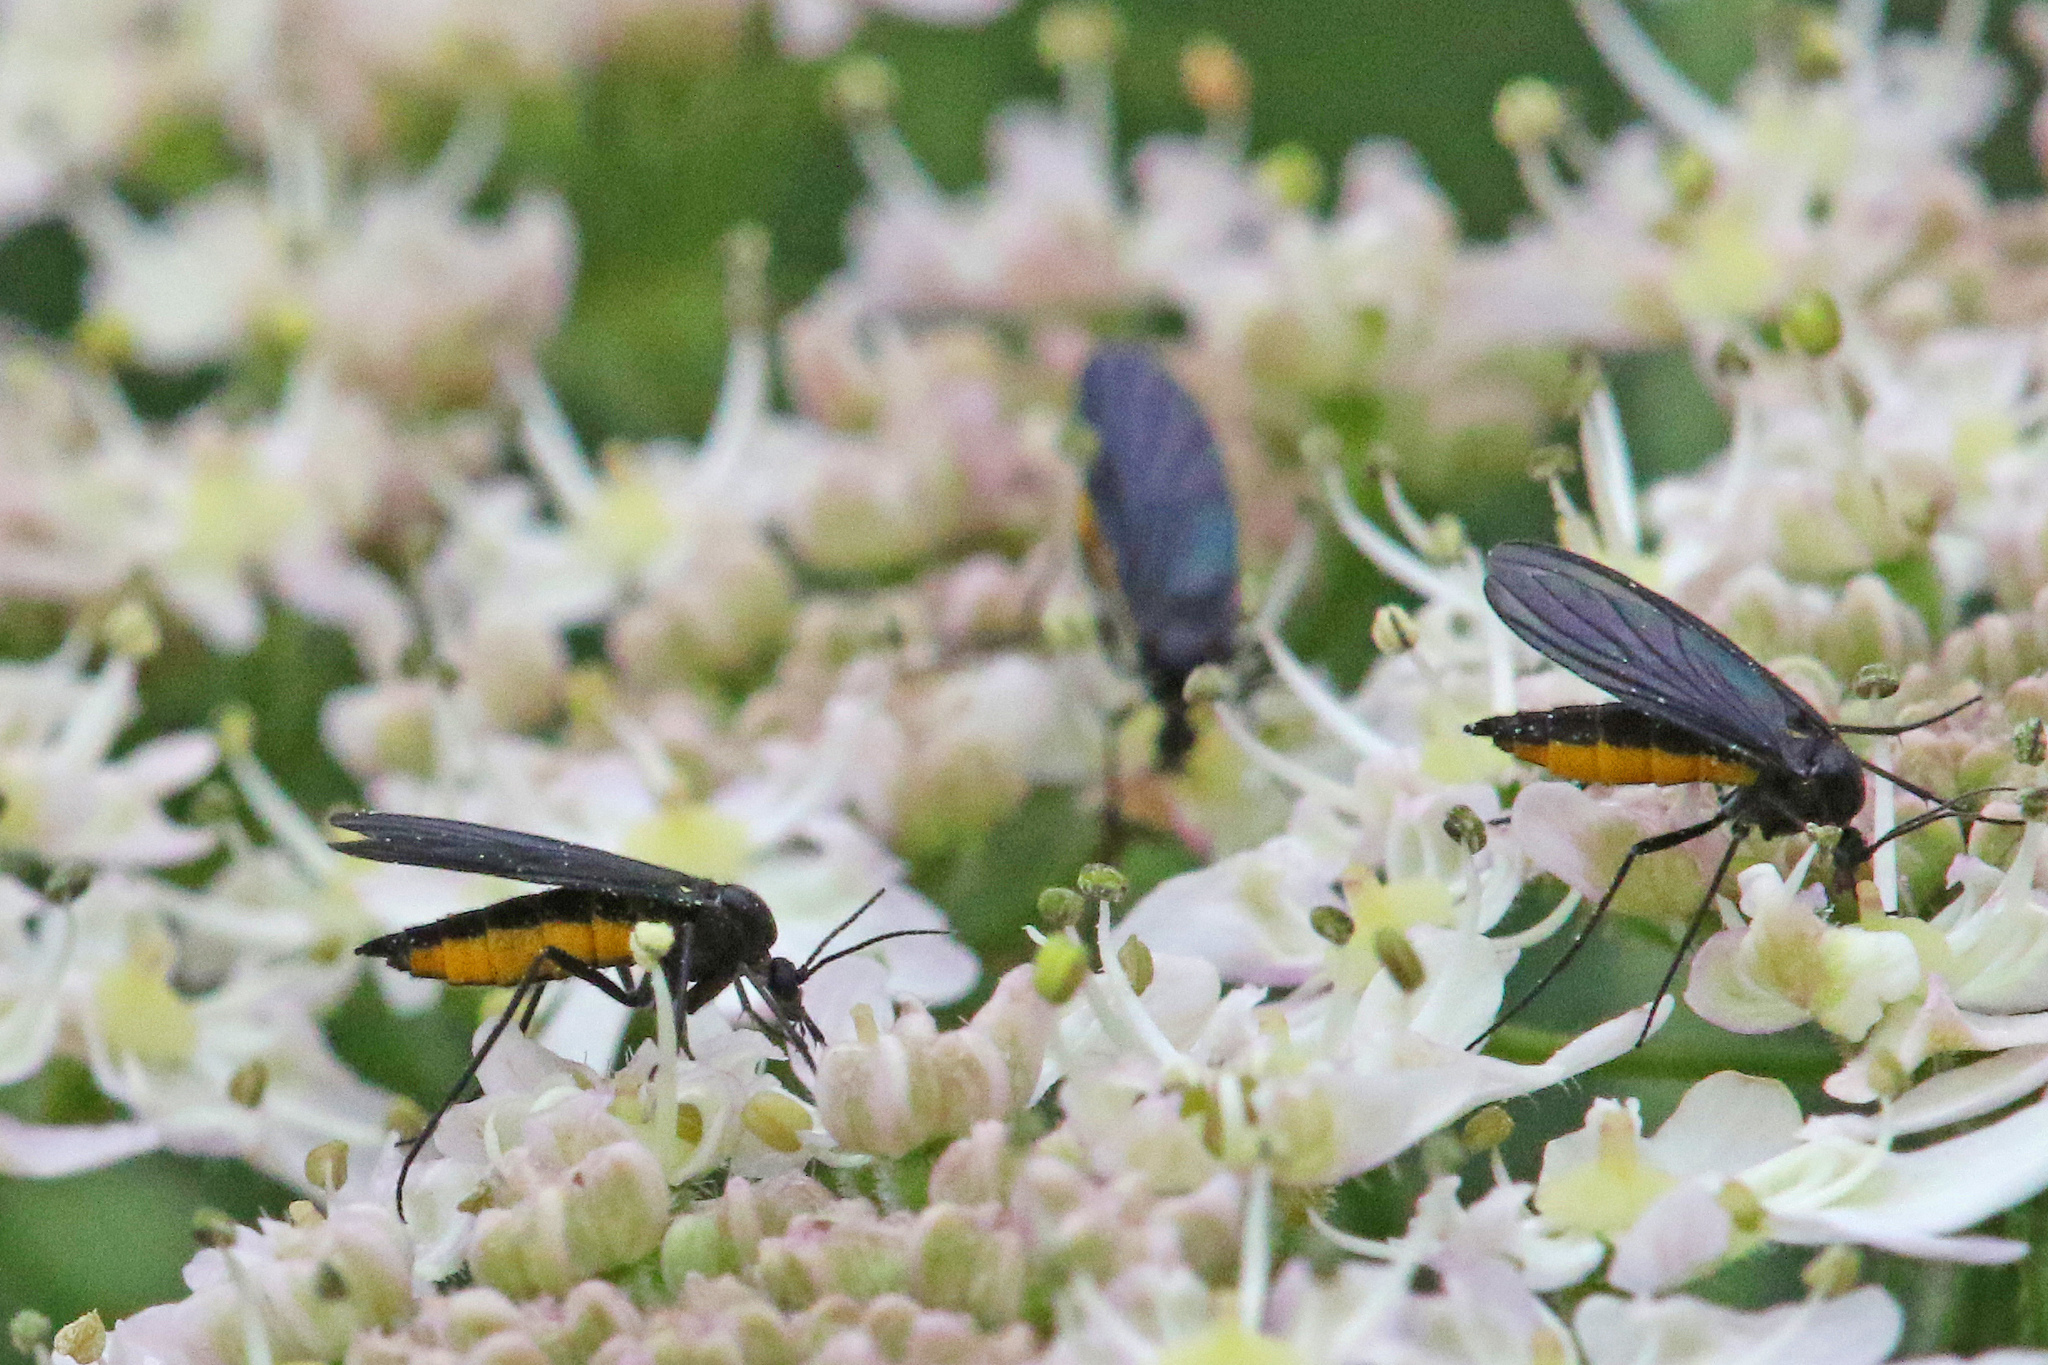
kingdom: Animalia
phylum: Arthropoda
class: Insecta
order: Diptera
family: Sciaridae
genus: Sciara
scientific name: Sciara hemerobioides
